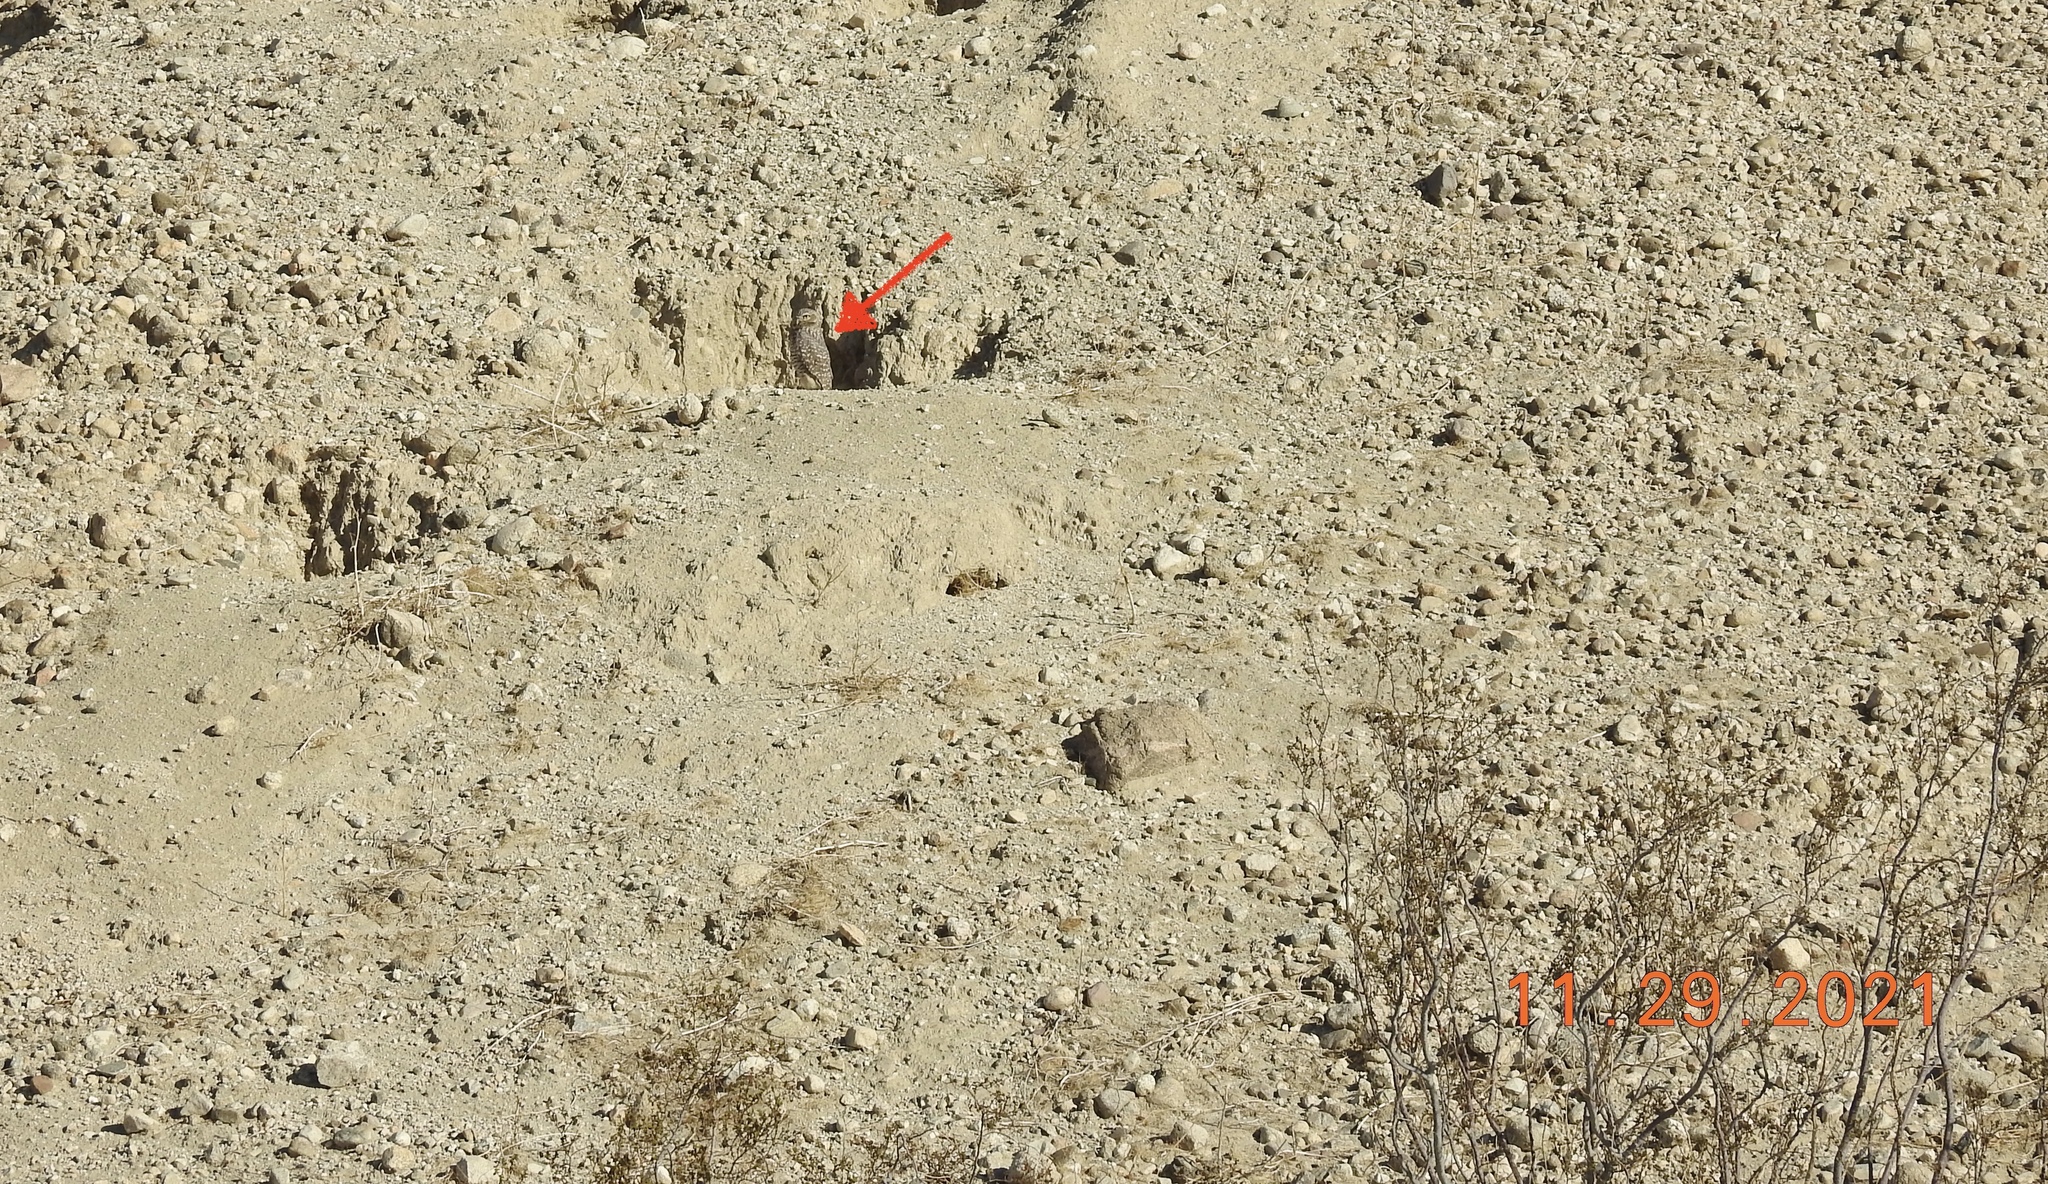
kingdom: Animalia
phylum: Chordata
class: Aves
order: Strigiformes
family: Strigidae
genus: Athene
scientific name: Athene cunicularia
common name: Burrowing owl
